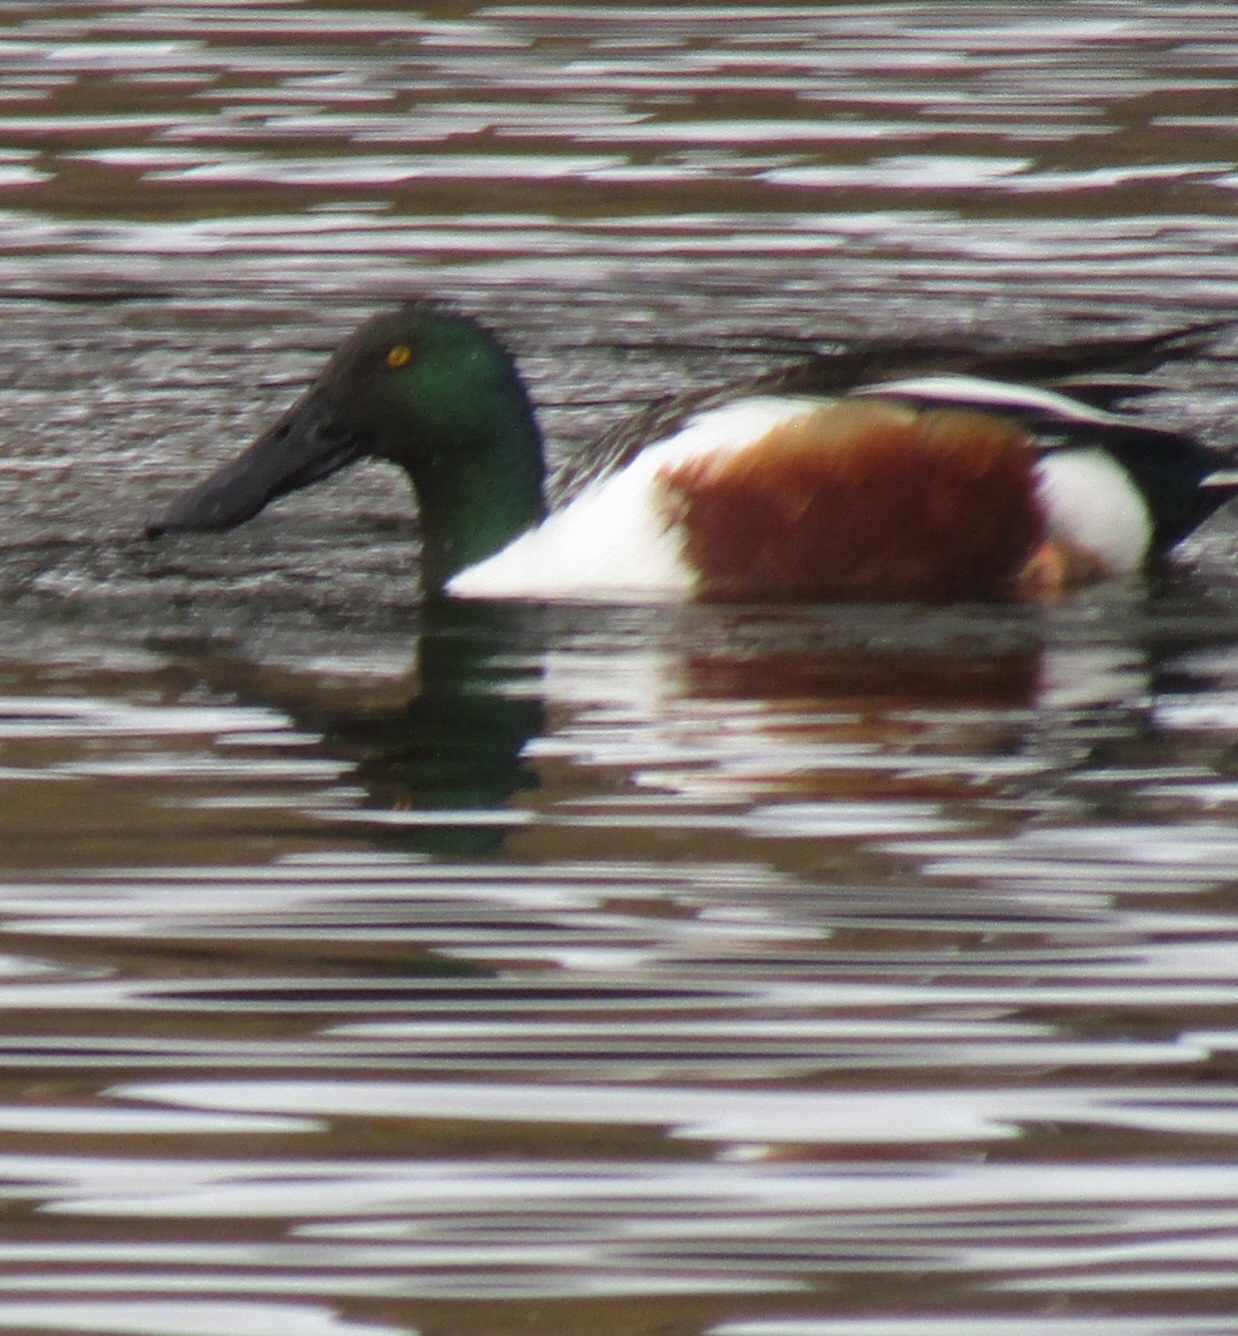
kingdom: Animalia
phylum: Chordata
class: Aves
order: Anseriformes
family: Anatidae
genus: Spatula
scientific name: Spatula clypeata
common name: Northern shoveler
